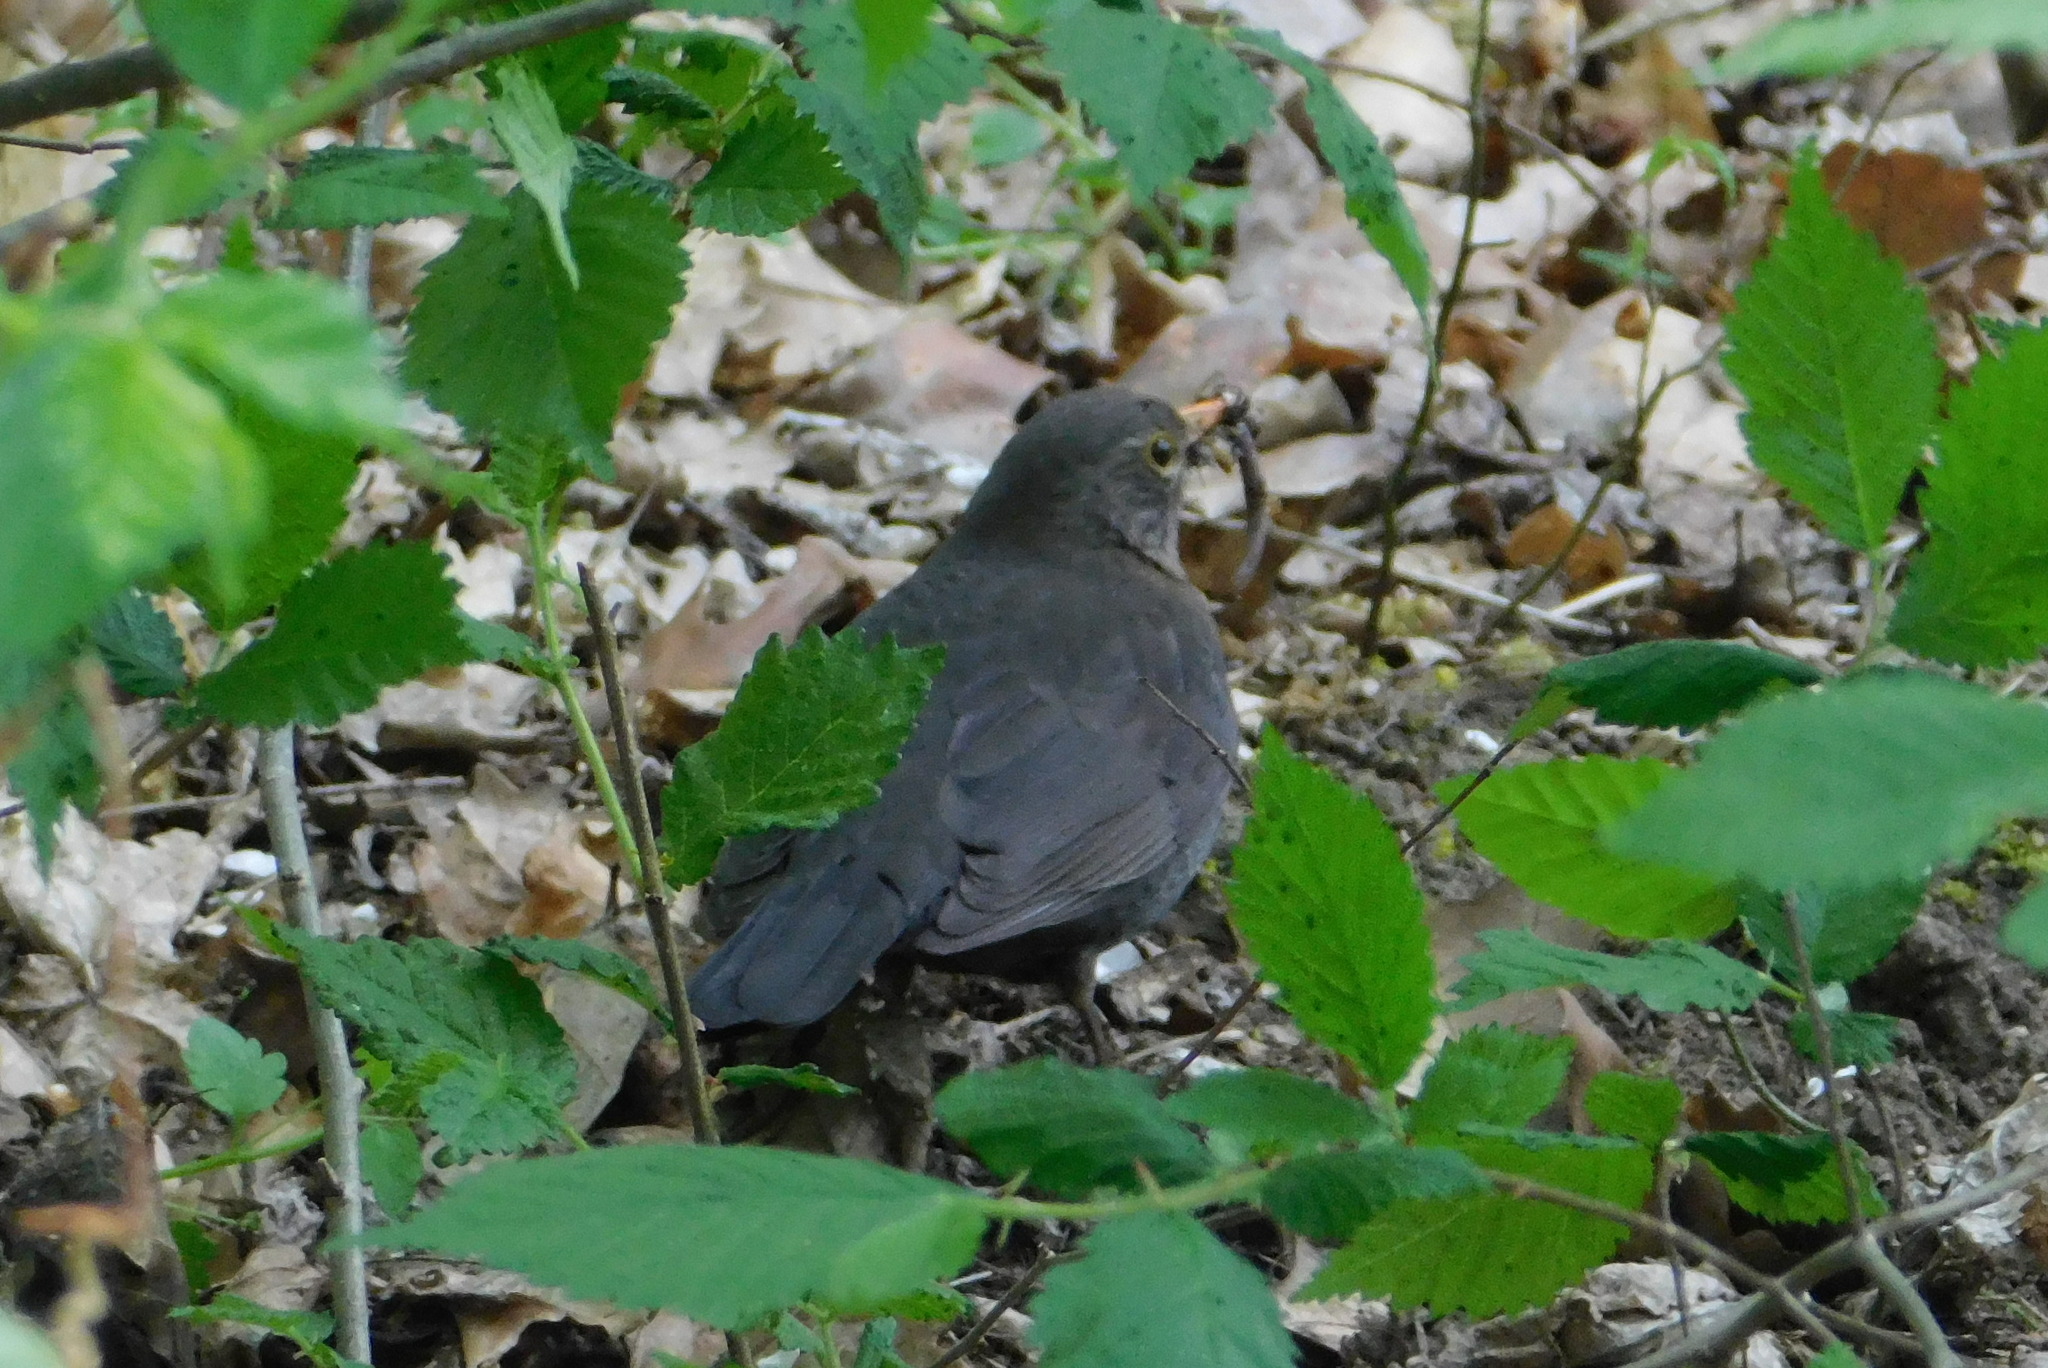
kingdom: Animalia
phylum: Chordata
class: Aves
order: Passeriformes
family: Turdidae
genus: Turdus
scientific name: Turdus merula
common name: Common blackbird
